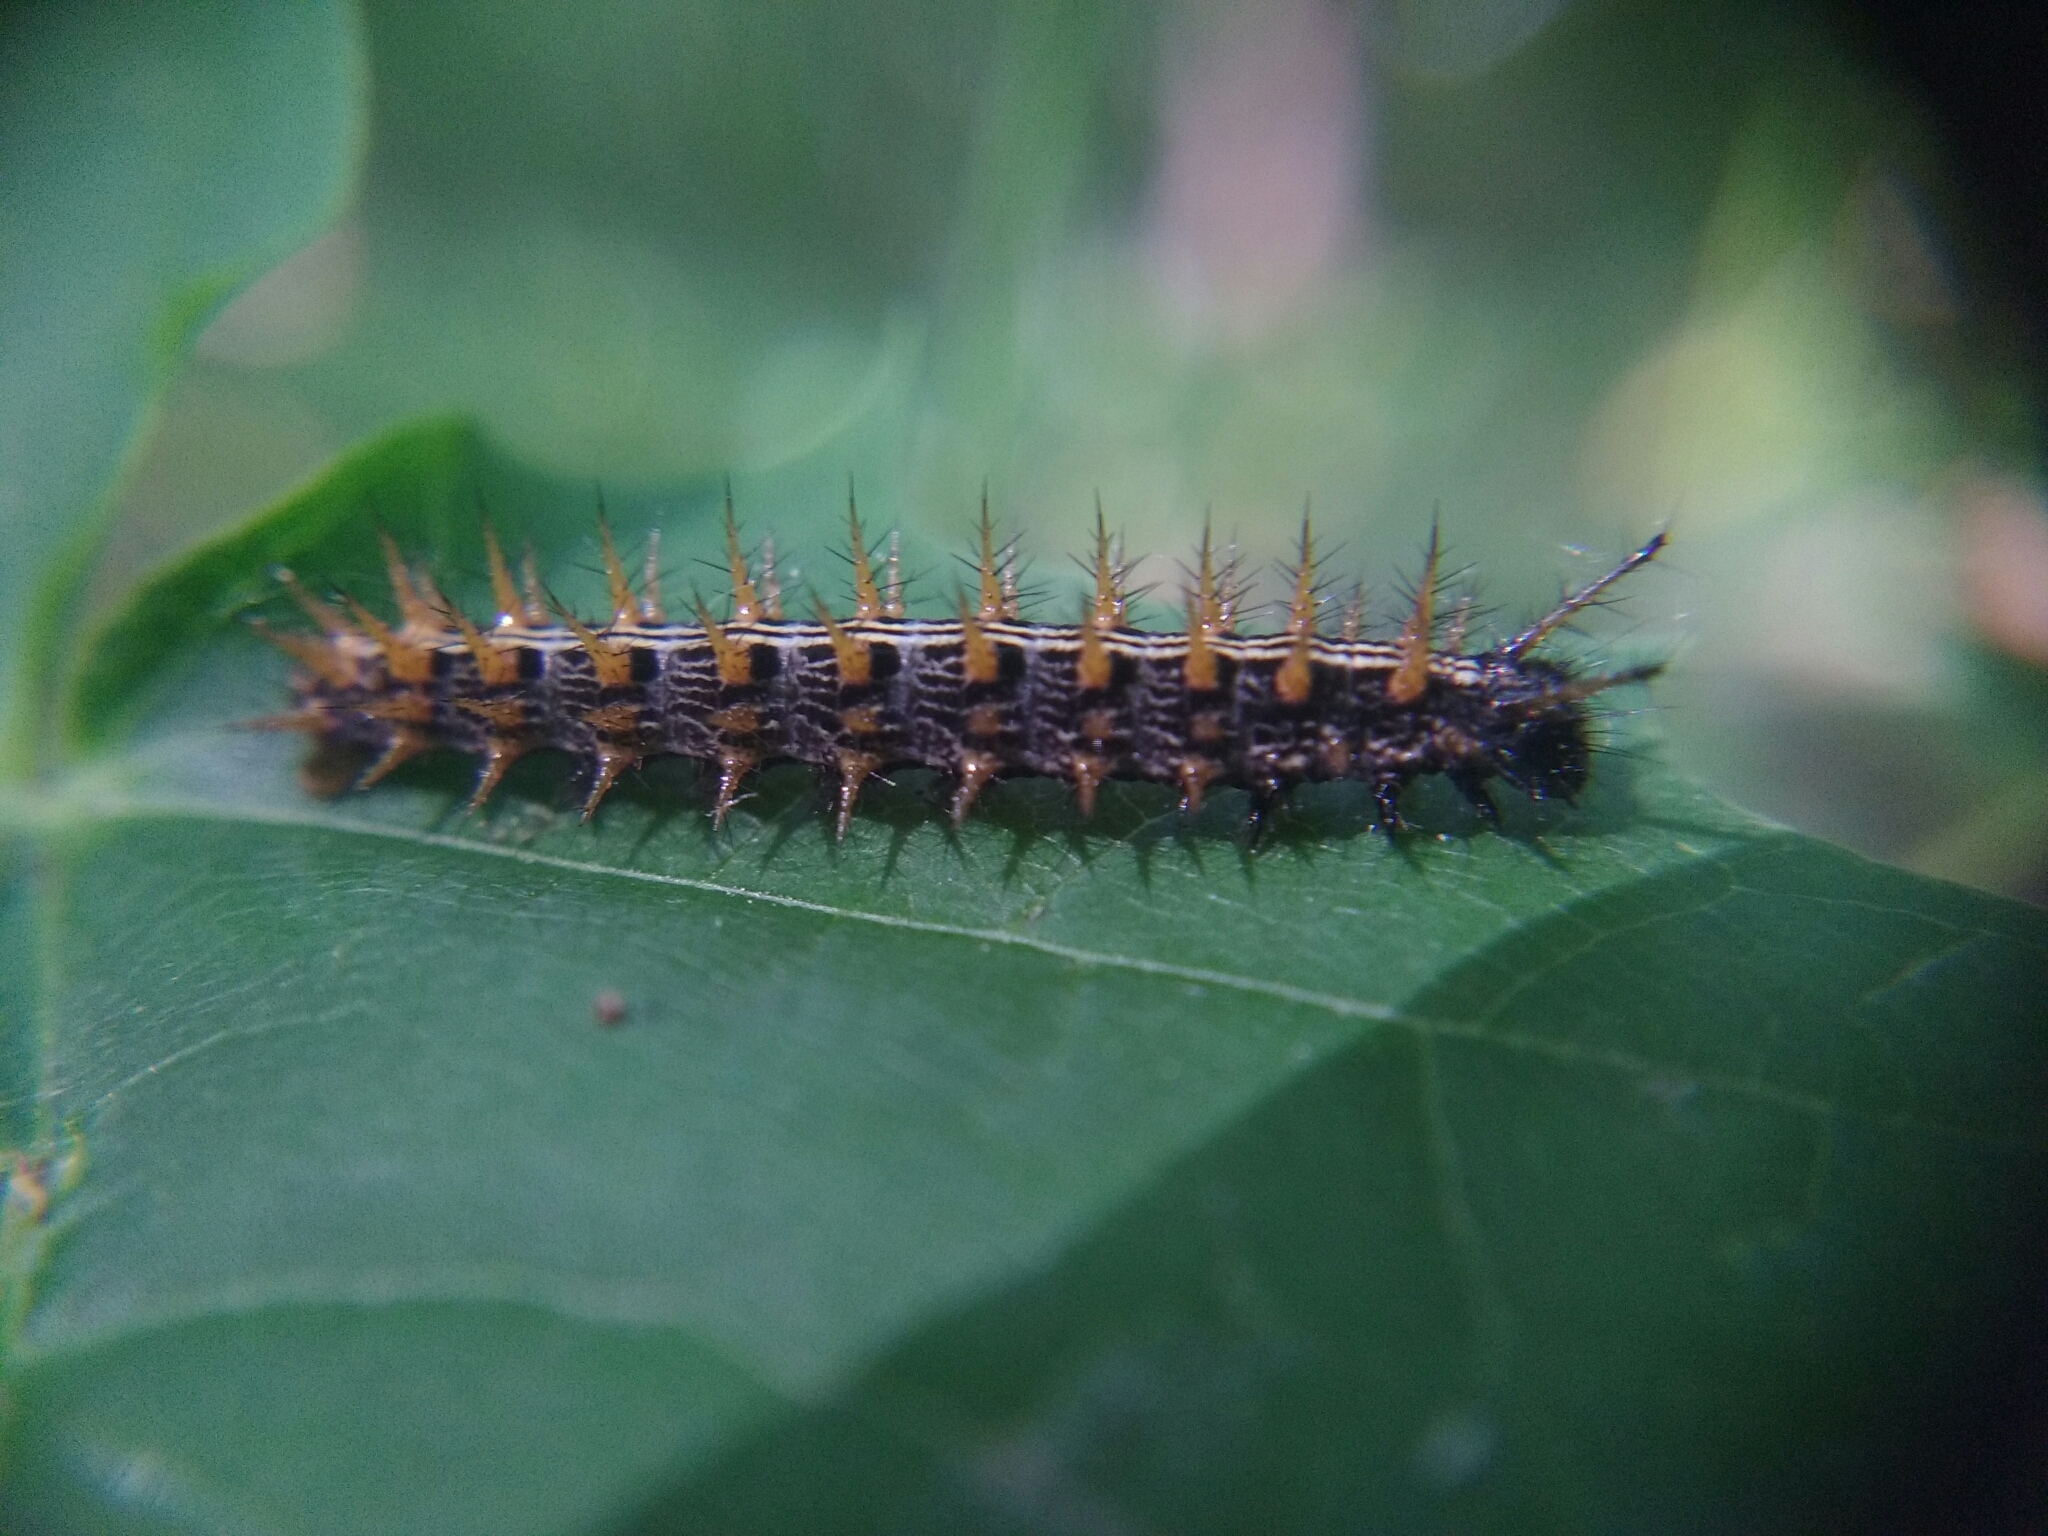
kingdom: Animalia
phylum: Arthropoda
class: Insecta
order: Lepidoptera
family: Nymphalidae
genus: Argynnis
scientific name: Argynnis paphia
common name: Silver-washed fritillary
